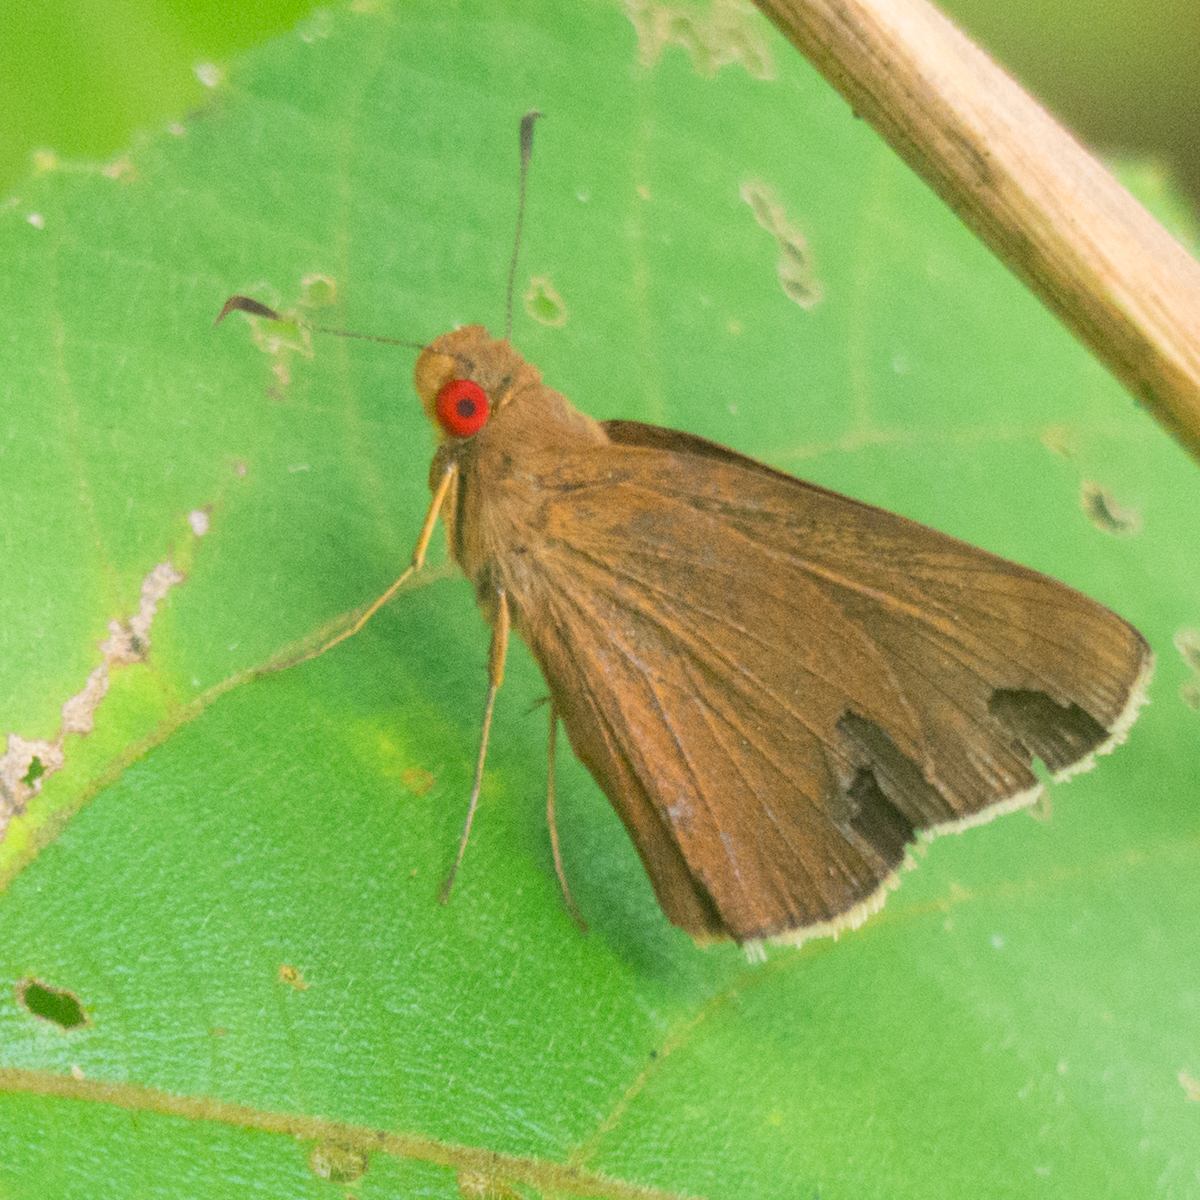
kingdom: Animalia
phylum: Arthropoda
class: Insecta
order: Lepidoptera
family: Hesperiidae
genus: Matapa
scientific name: Matapa aria
